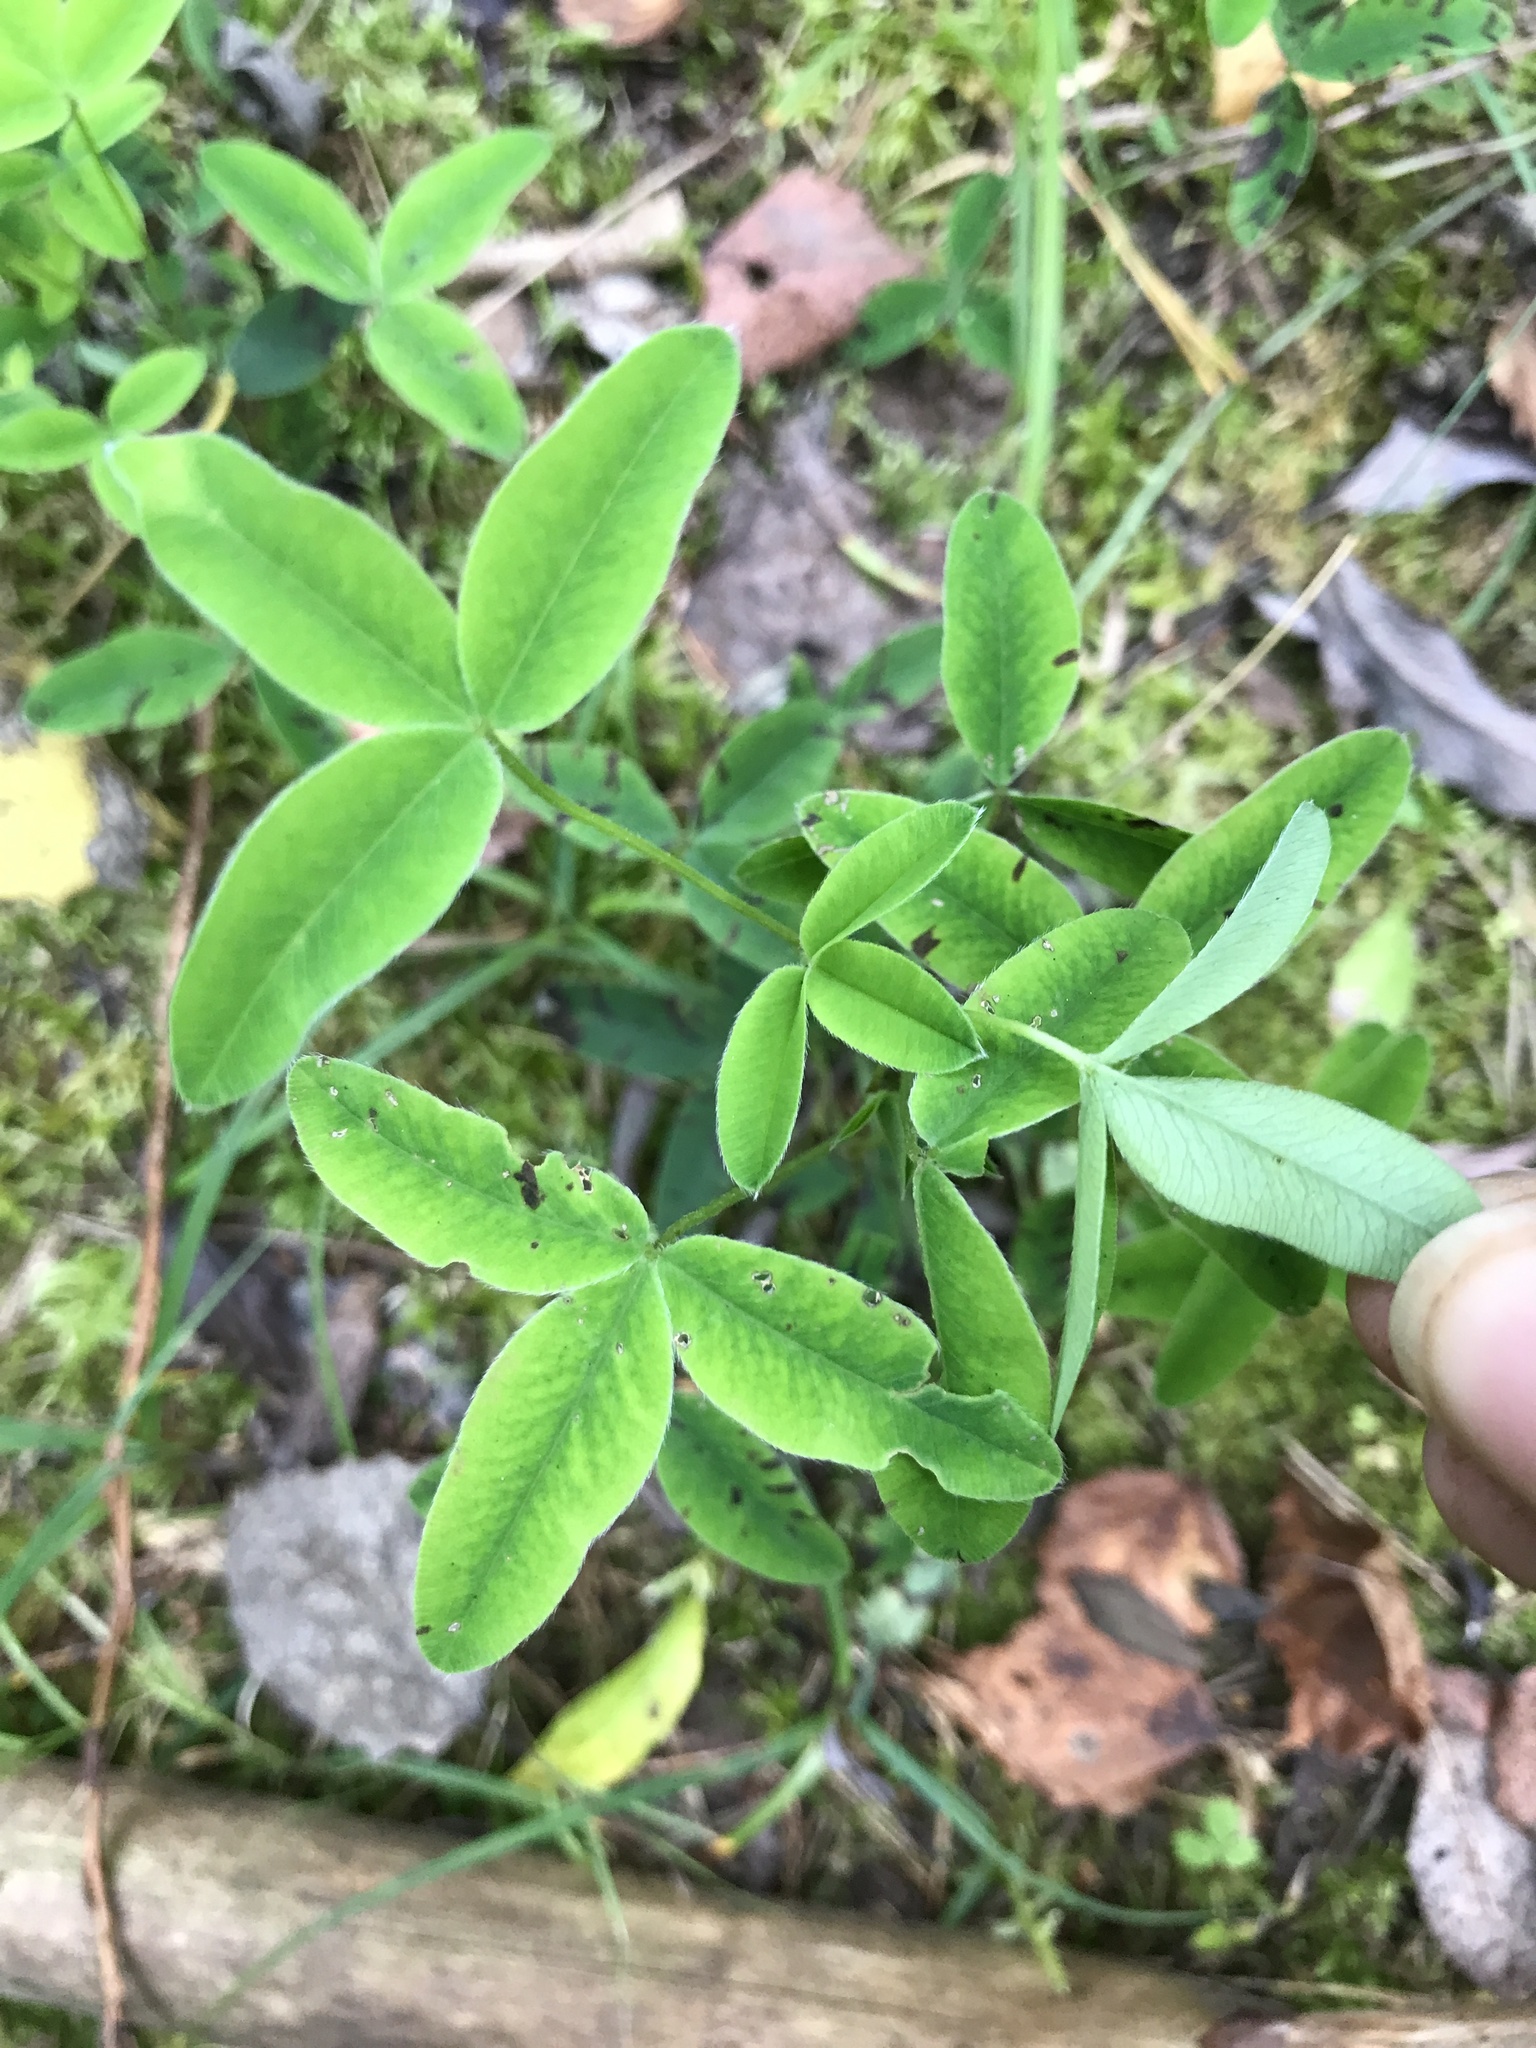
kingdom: Plantae
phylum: Tracheophyta
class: Magnoliopsida
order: Fabales
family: Fabaceae
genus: Trifolium
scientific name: Trifolium medium
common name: Zigzag clover
